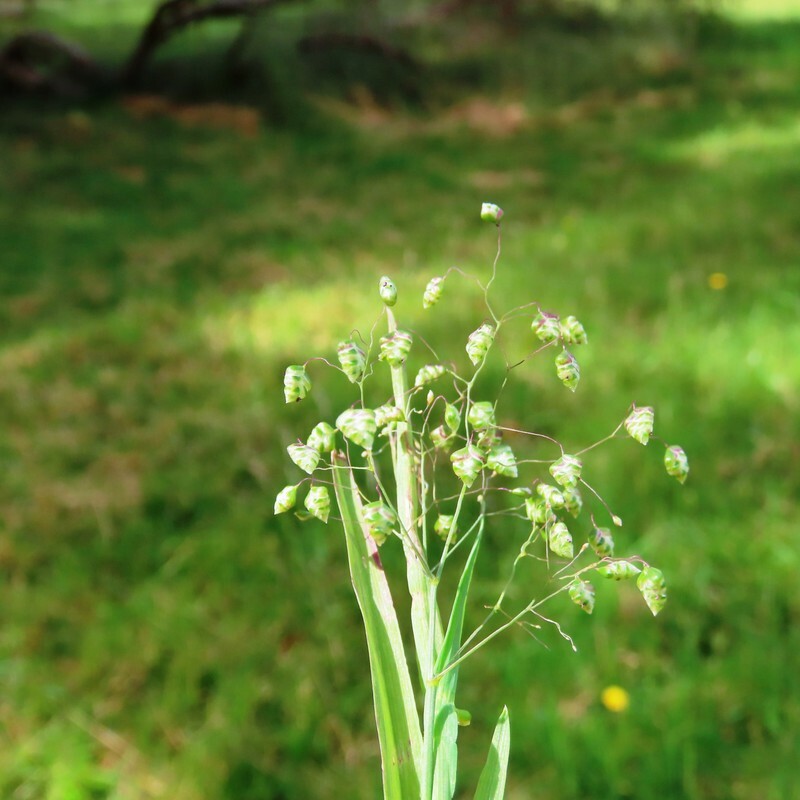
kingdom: Plantae
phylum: Tracheophyta
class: Liliopsida
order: Poales
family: Poaceae
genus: Briza
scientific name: Briza minor
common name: Lesser quaking-grass
